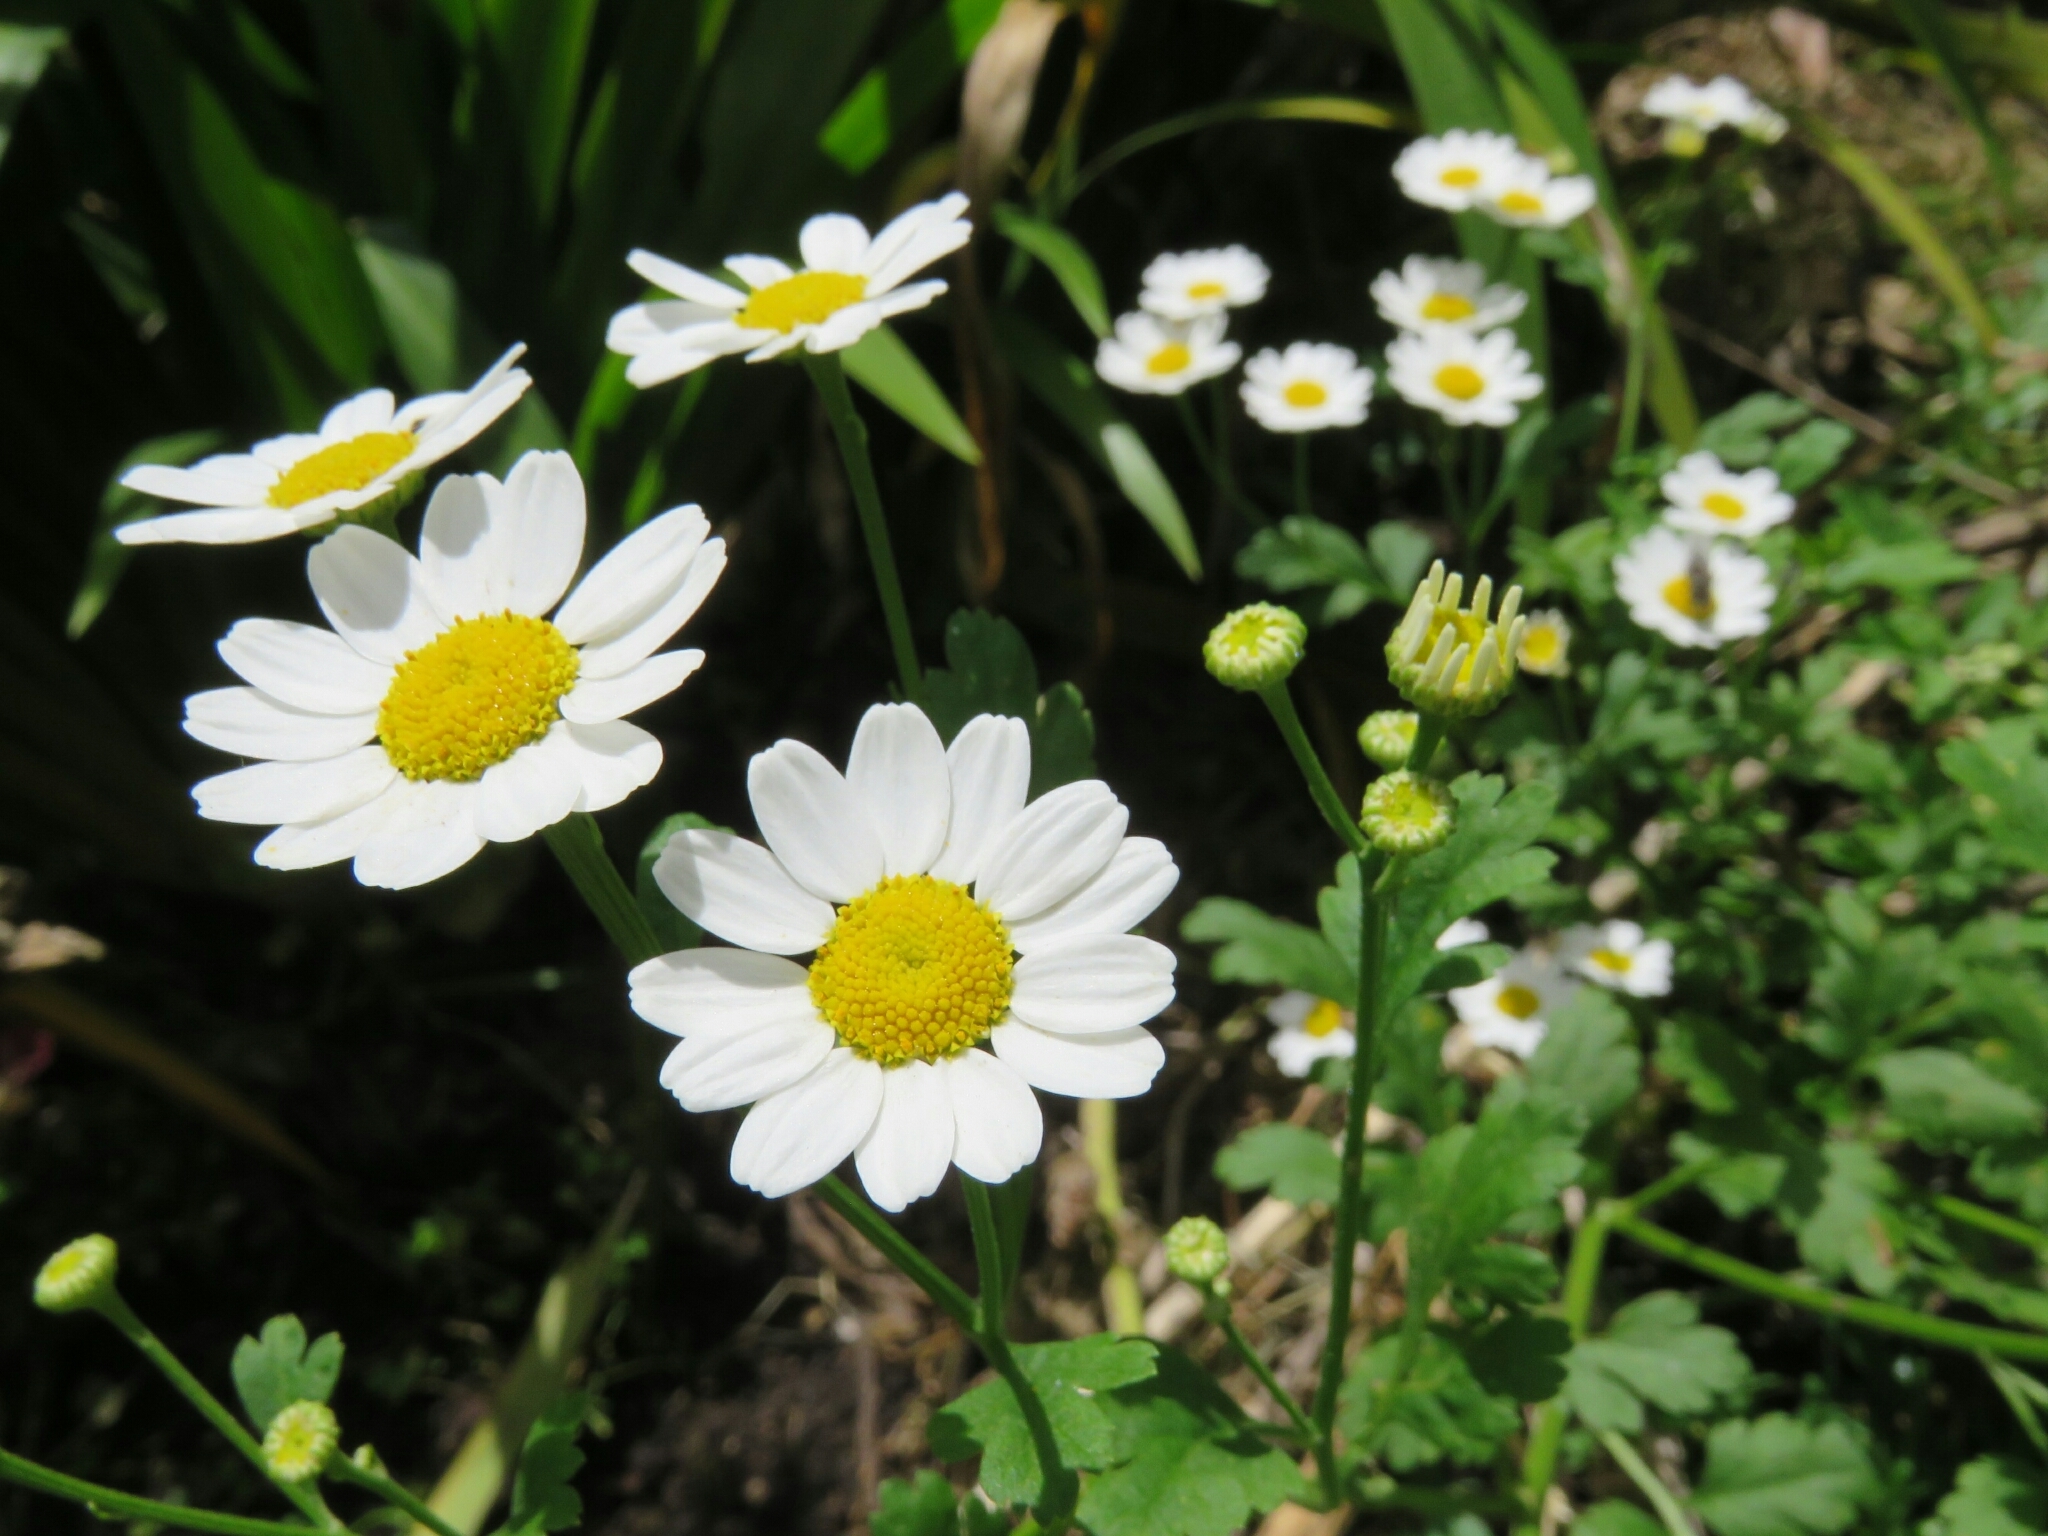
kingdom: Plantae
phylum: Tracheophyta
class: Magnoliopsida
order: Asterales
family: Asteraceae
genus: Tanacetum
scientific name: Tanacetum parthenium
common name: Feverfew
